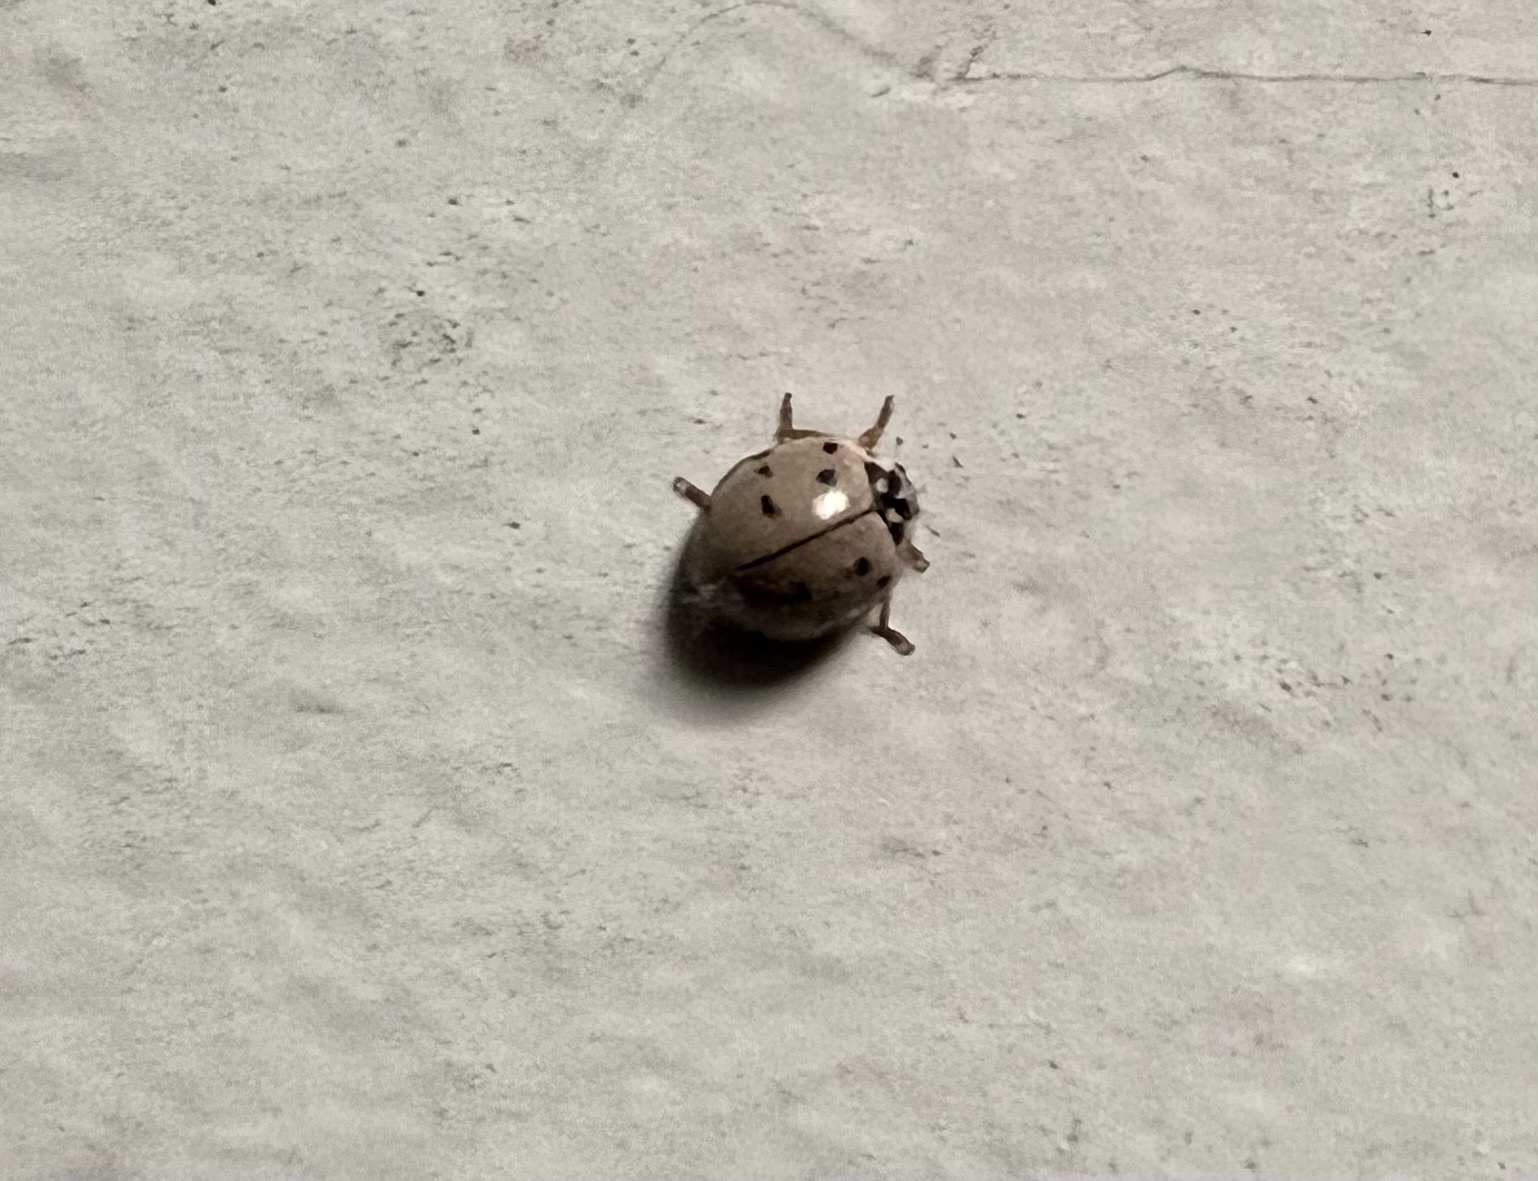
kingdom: Animalia
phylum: Arthropoda
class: Insecta
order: Coleoptera
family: Coccinellidae
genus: Olla
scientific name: Olla v-nigrum
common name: Ashy gray lady beetle
